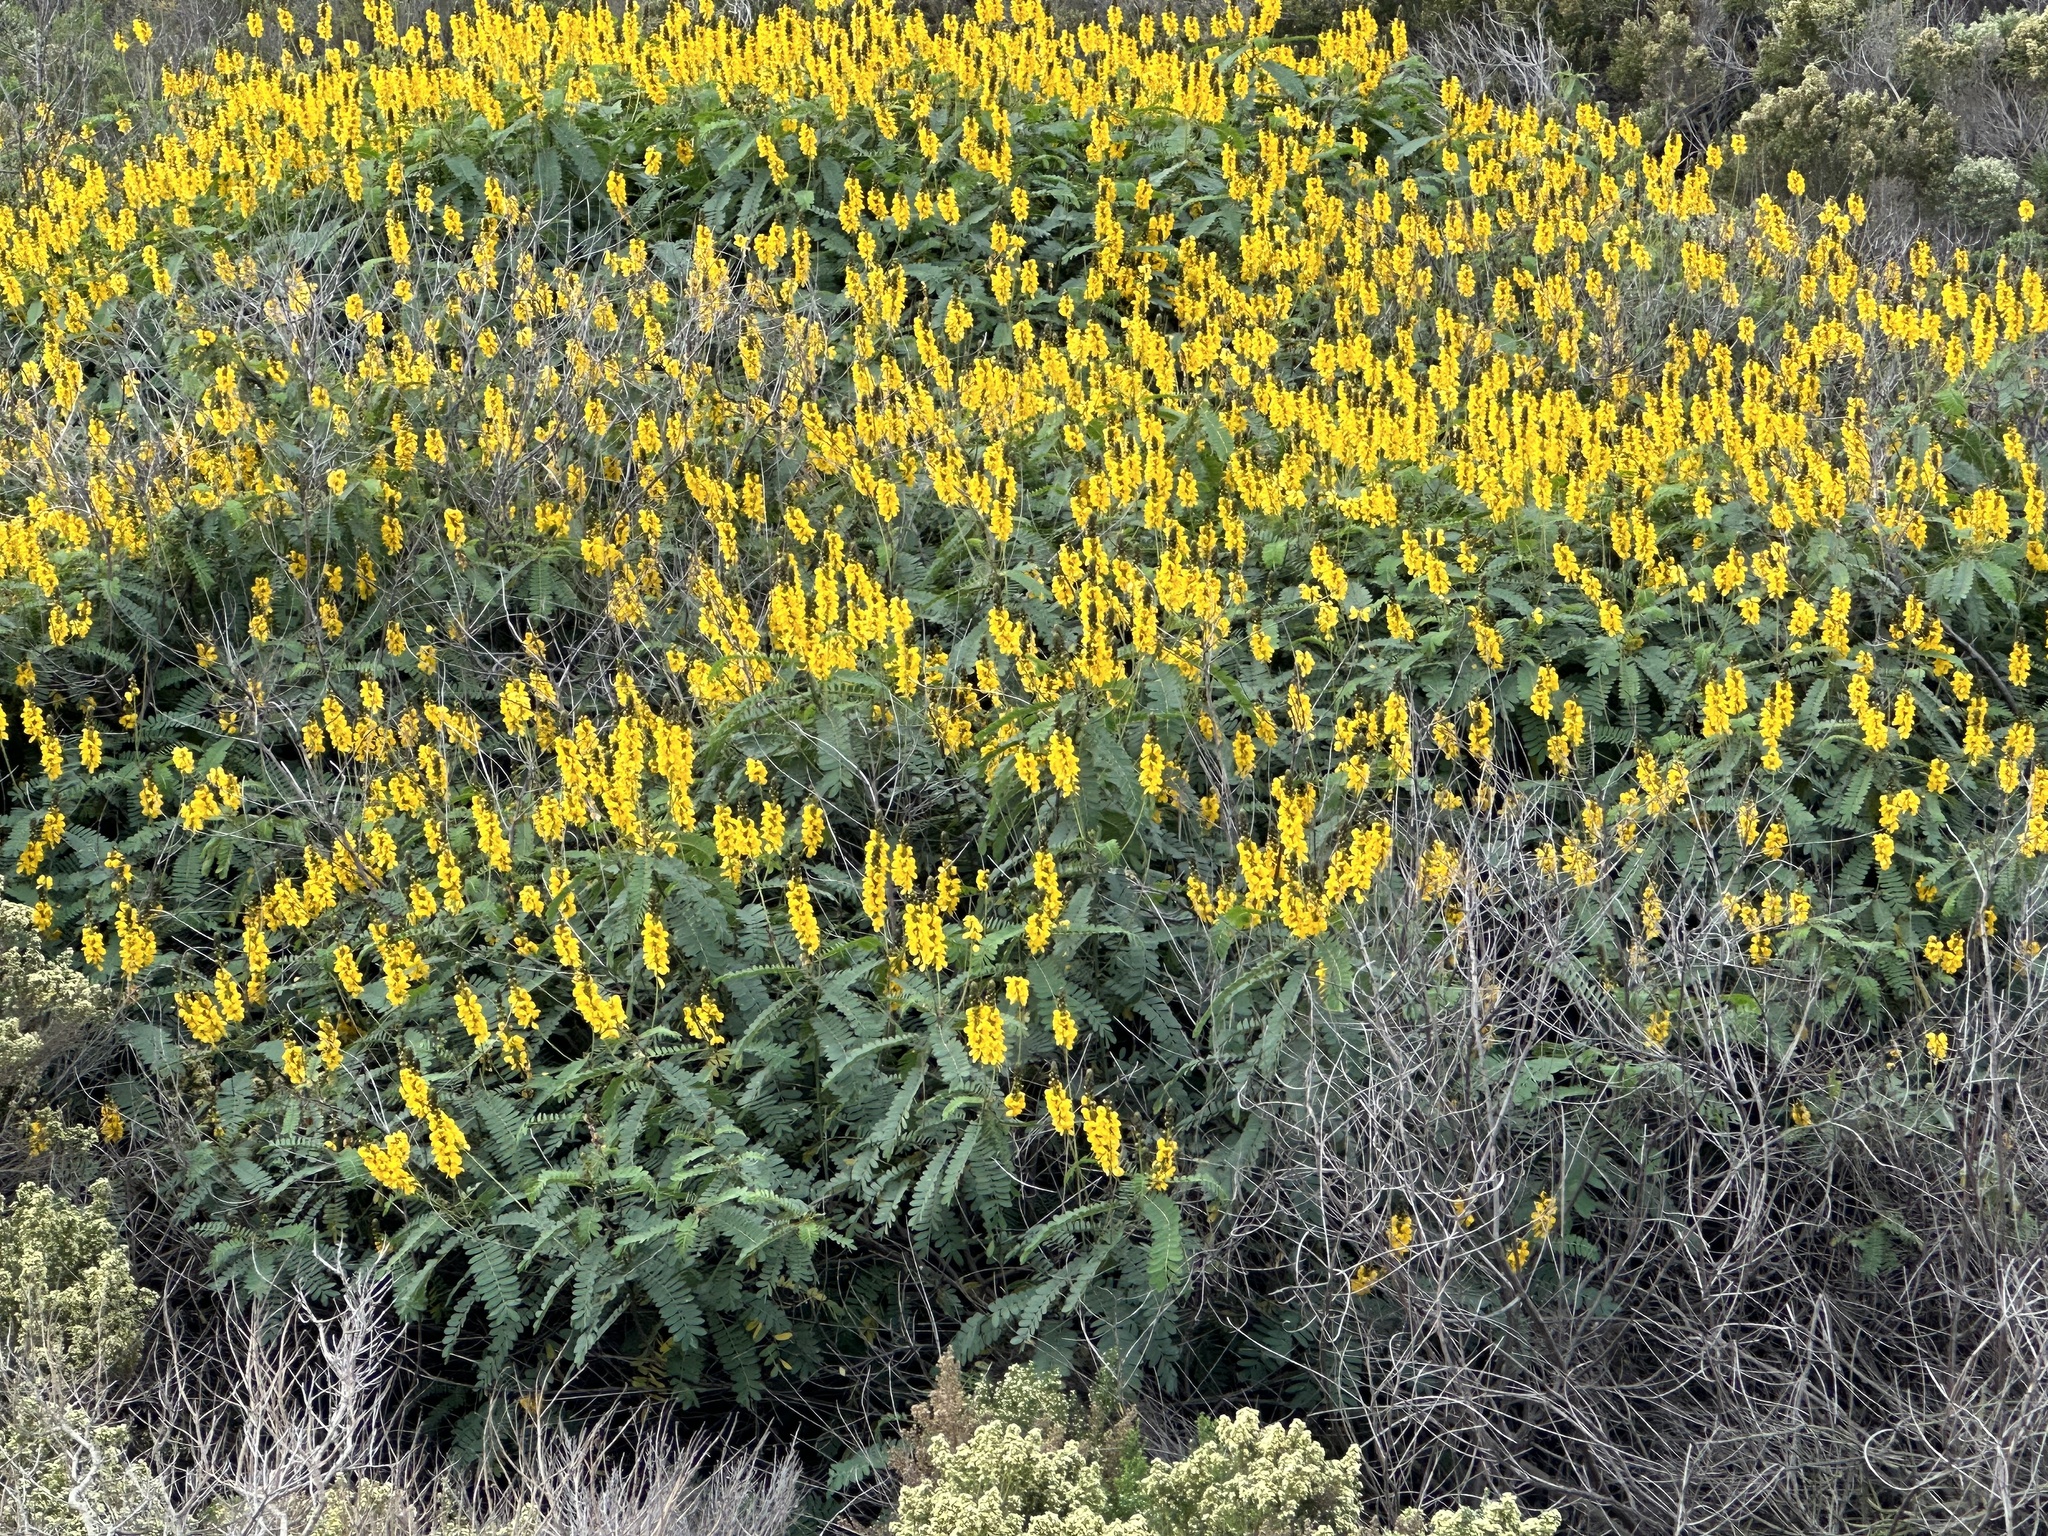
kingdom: Plantae
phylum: Tracheophyta
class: Magnoliopsida
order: Fabales
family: Fabaceae
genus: Senna
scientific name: Senna didymobotrya
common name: African senna
